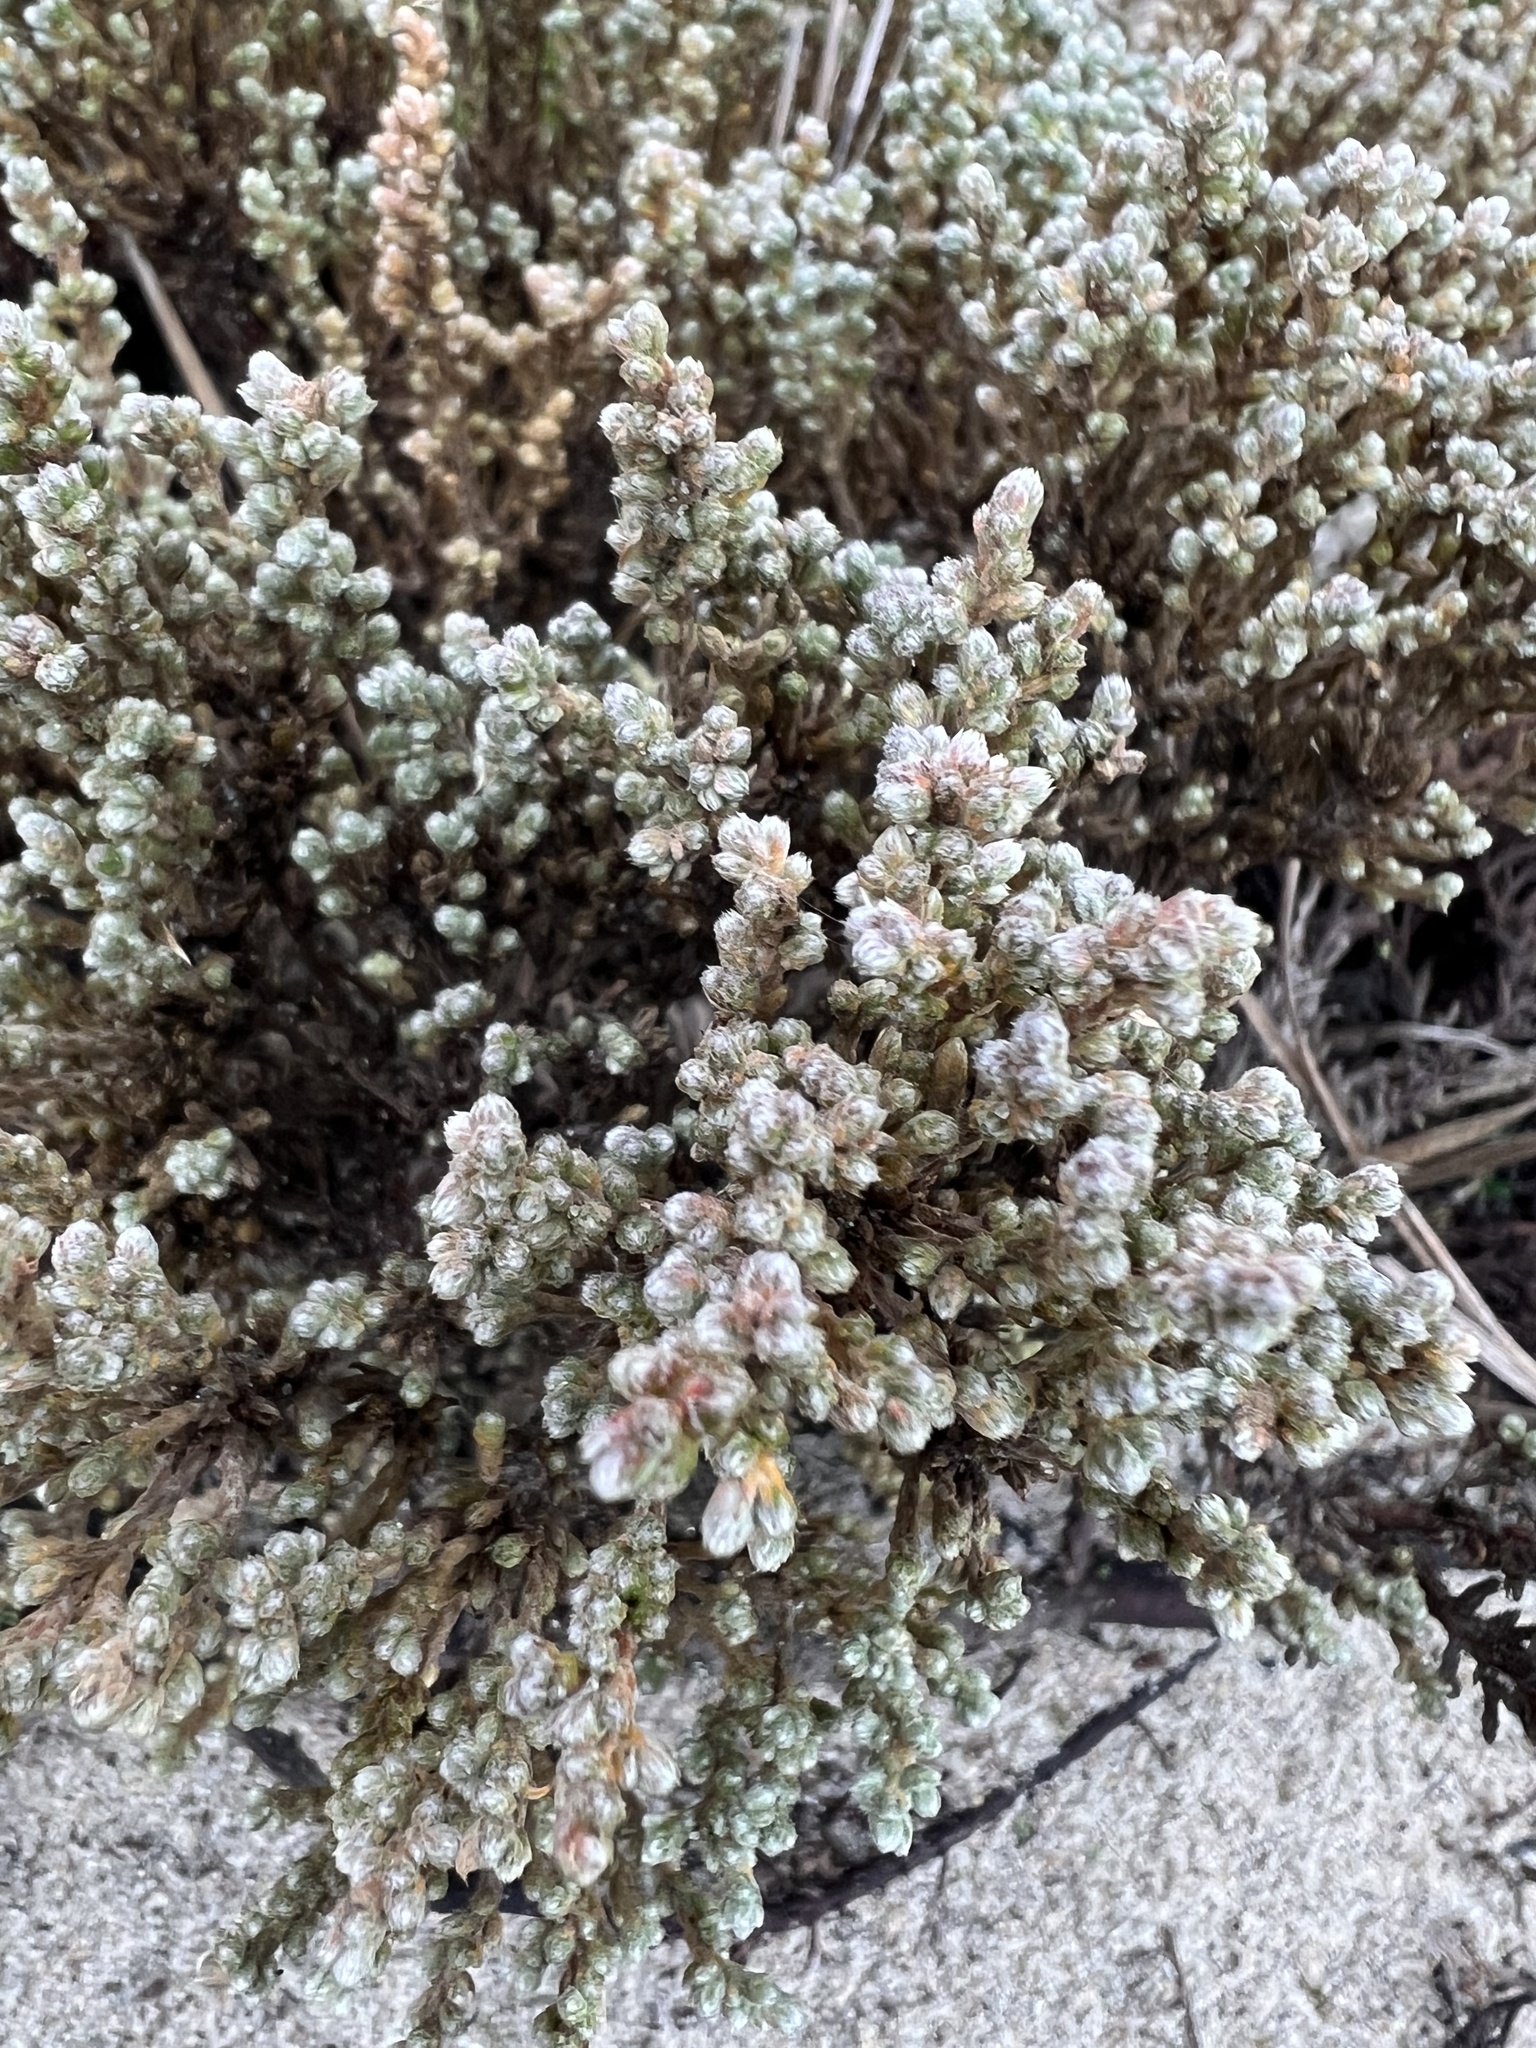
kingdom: Plantae
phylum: Tracheophyta
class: Magnoliopsida
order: Malvales
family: Cistaceae
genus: Hudsonia
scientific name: Hudsonia tomentosa
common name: Beach-heath
